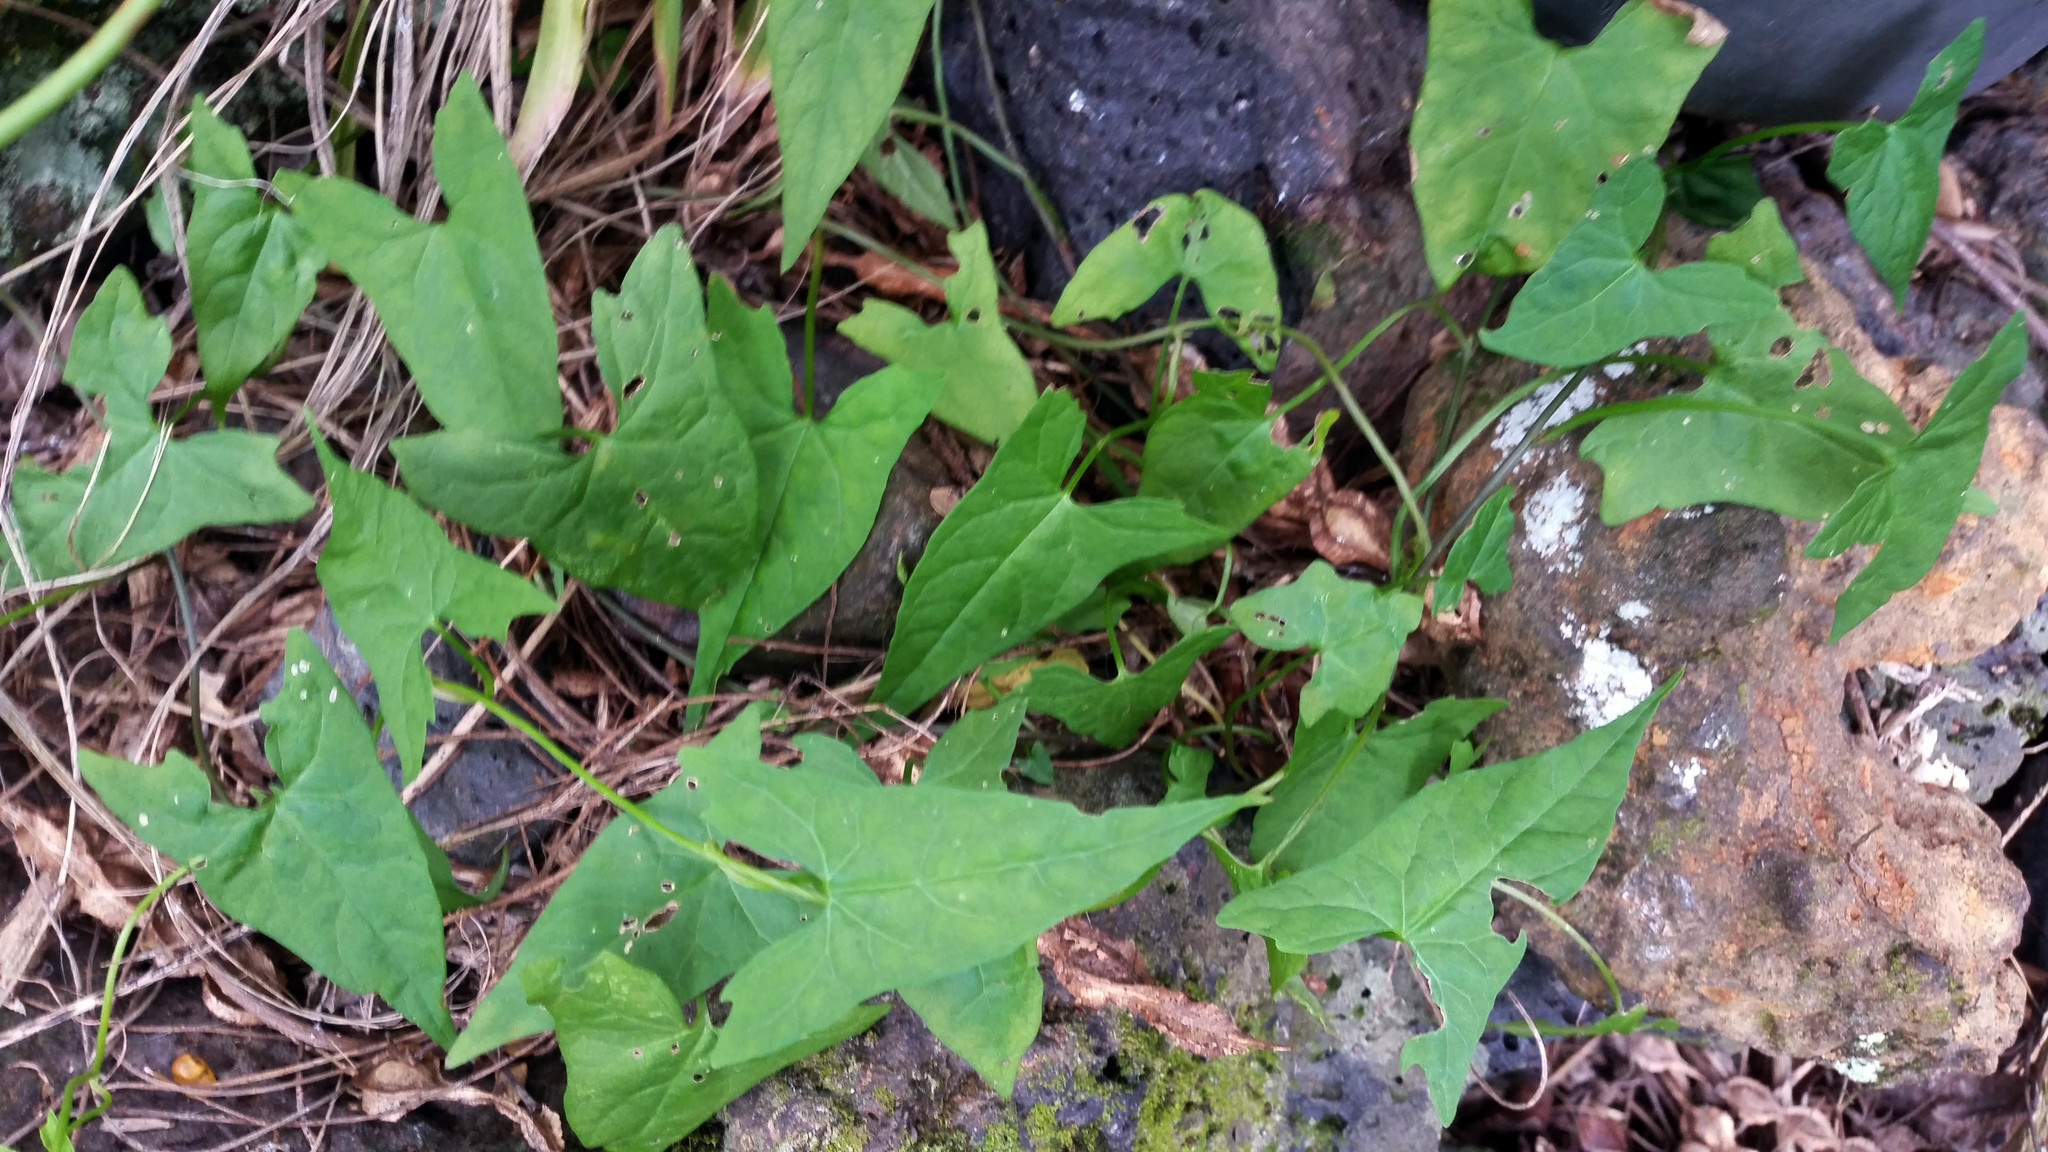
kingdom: Plantae
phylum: Tracheophyta
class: Magnoliopsida
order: Solanales
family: Convolvulaceae
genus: Calystegia
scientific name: Calystegia marginata
